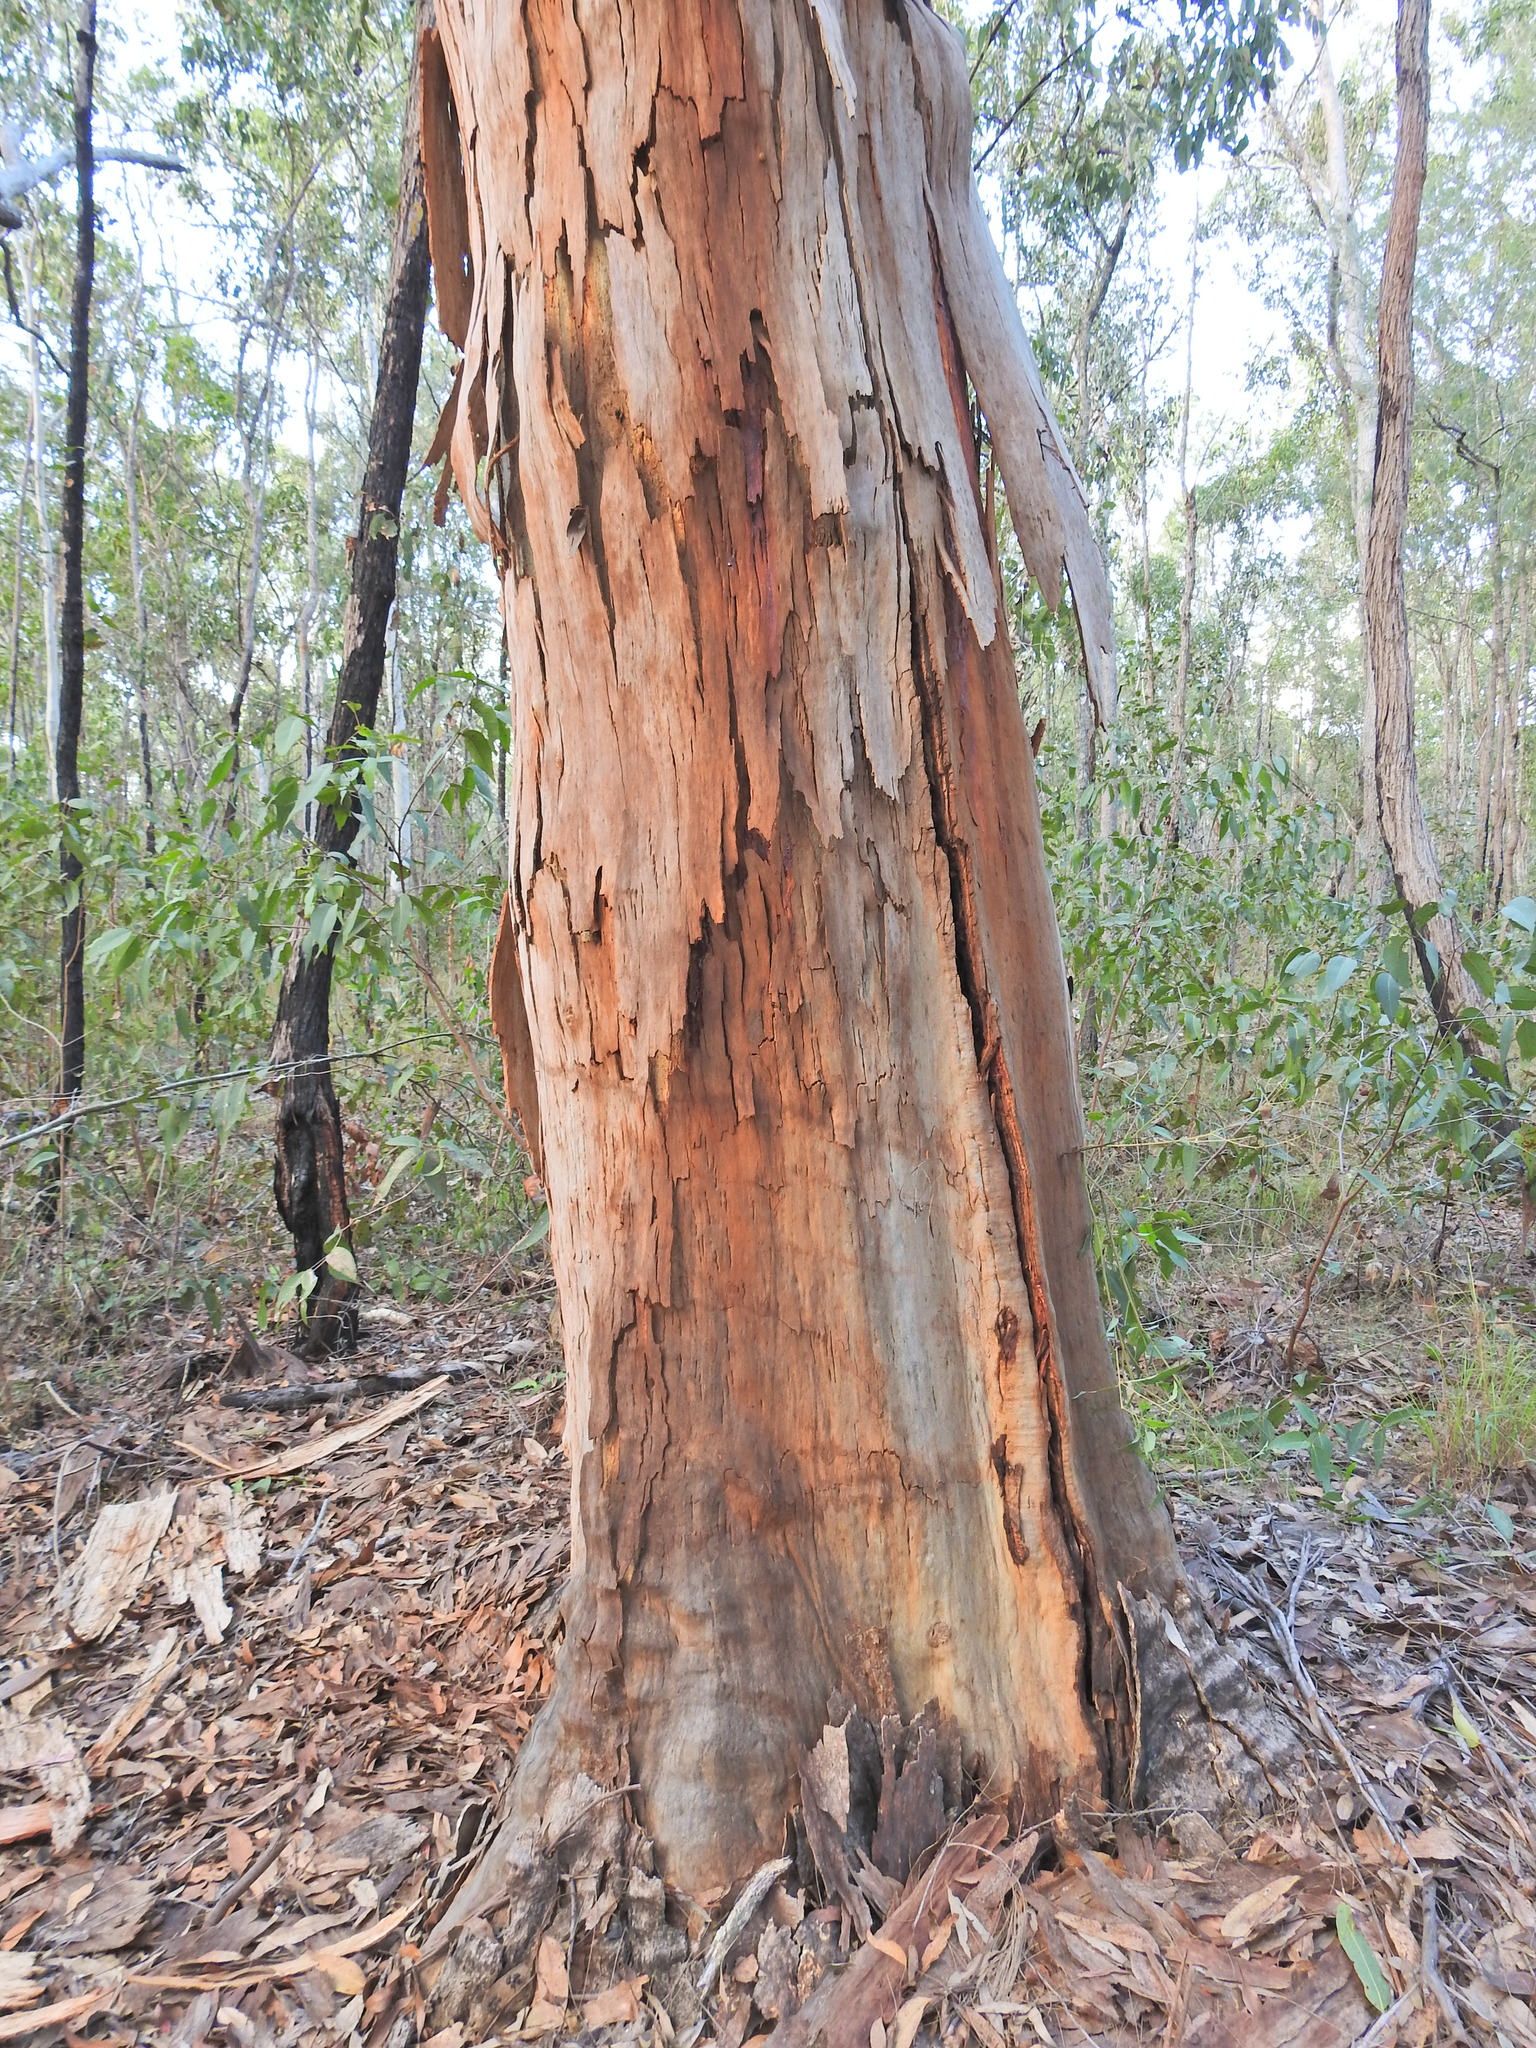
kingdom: Plantae
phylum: Tracheophyta
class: Magnoliopsida
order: Myrtales
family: Myrtaceae
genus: Angophora
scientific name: Angophora leiocarpa
